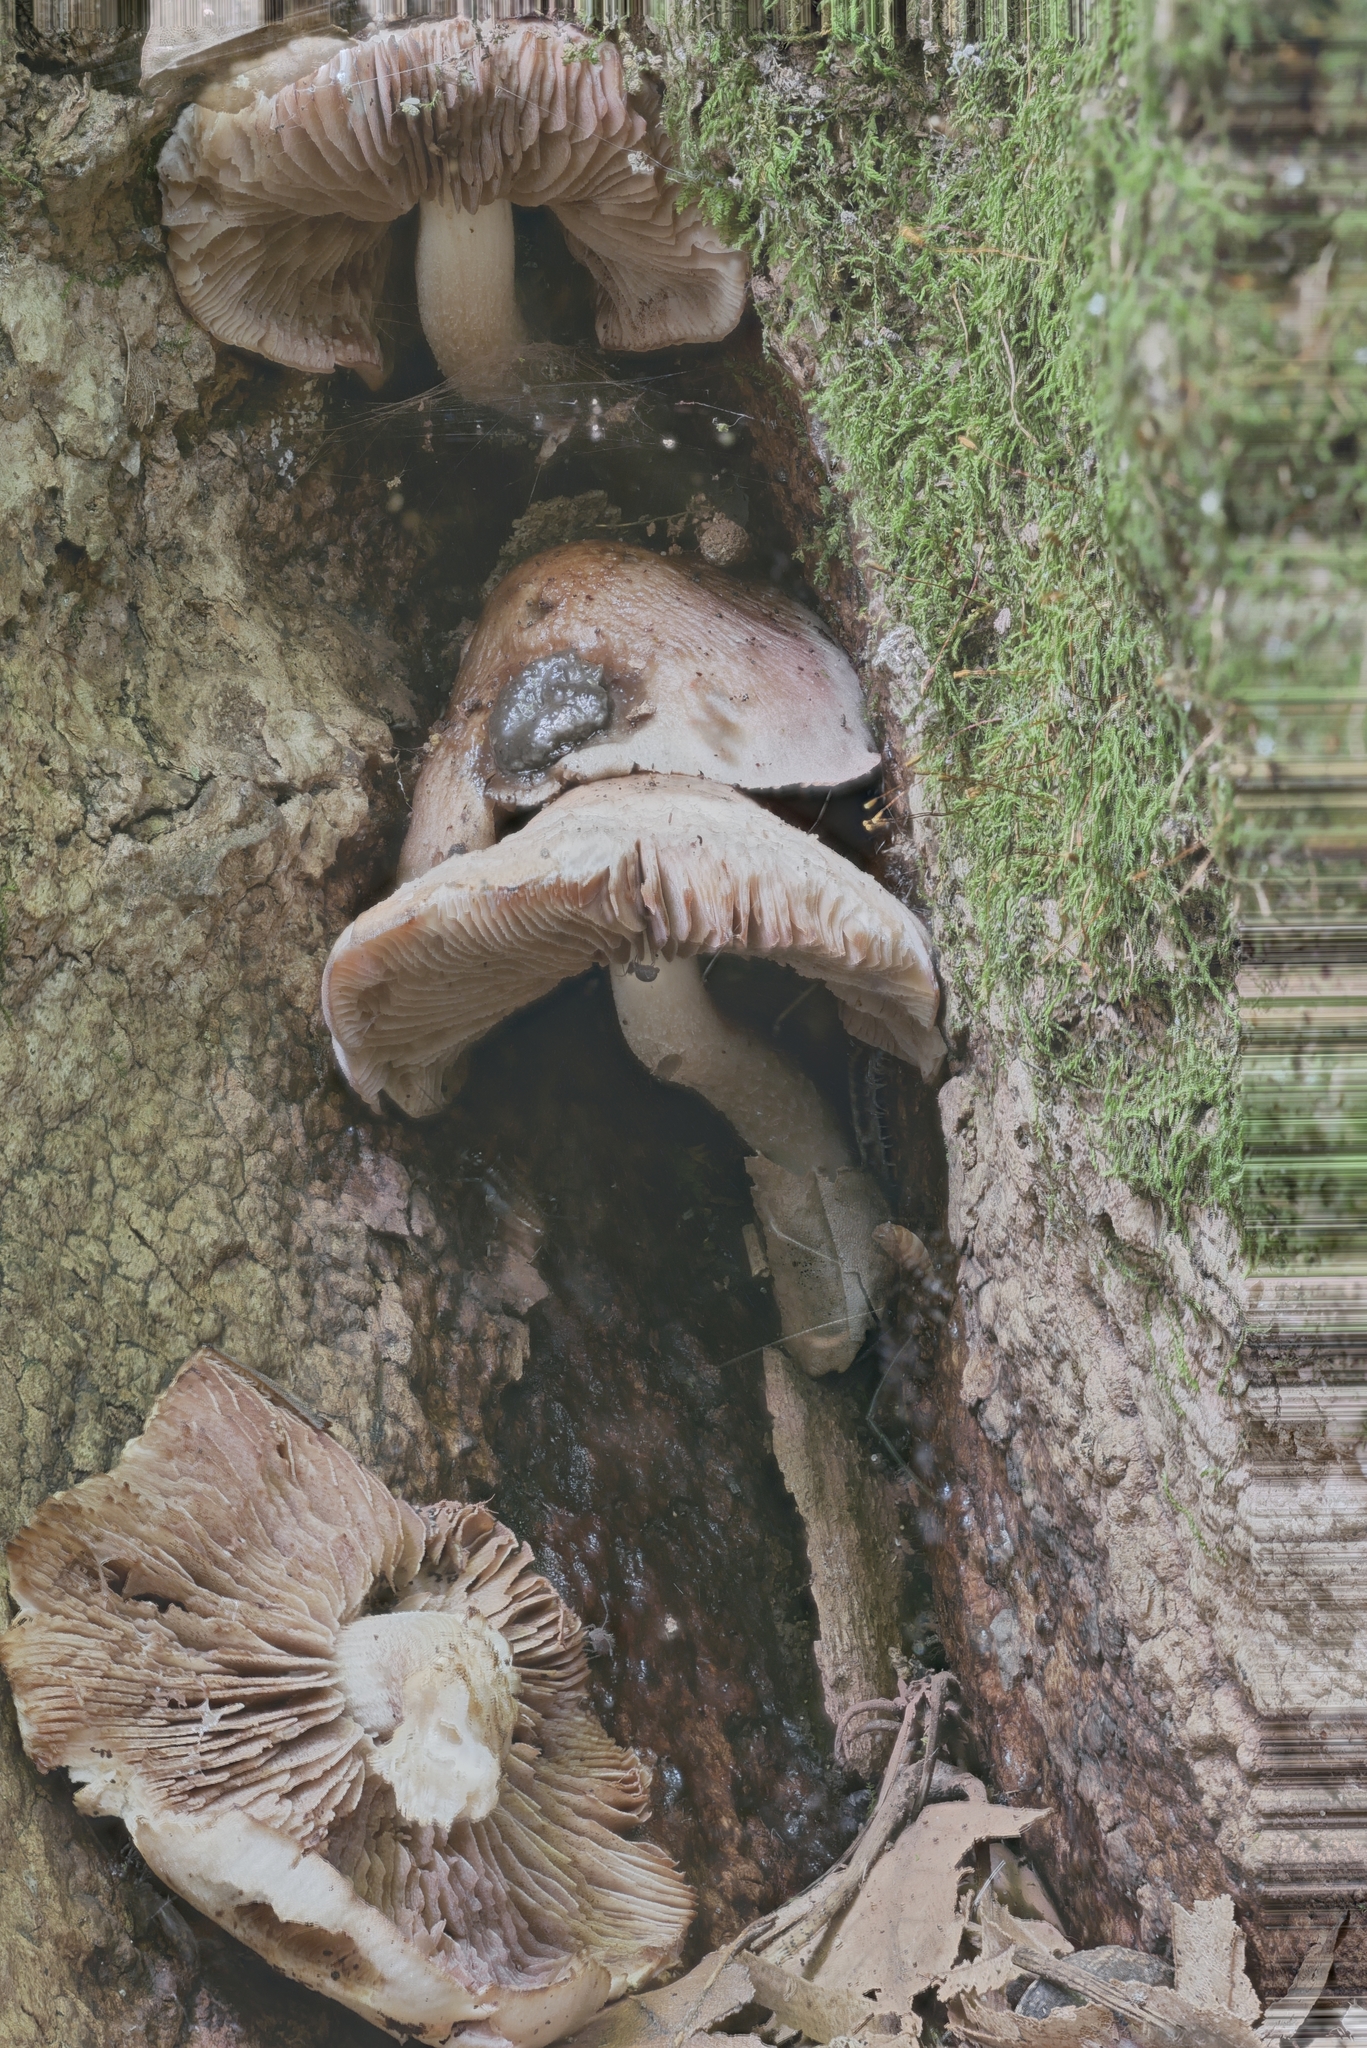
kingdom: Fungi
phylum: Basidiomycota
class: Agaricomycetes
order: Agaricales
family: Psathyrellaceae
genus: Homophron
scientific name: Homophron spadiceum
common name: Chestnut brittlestem
